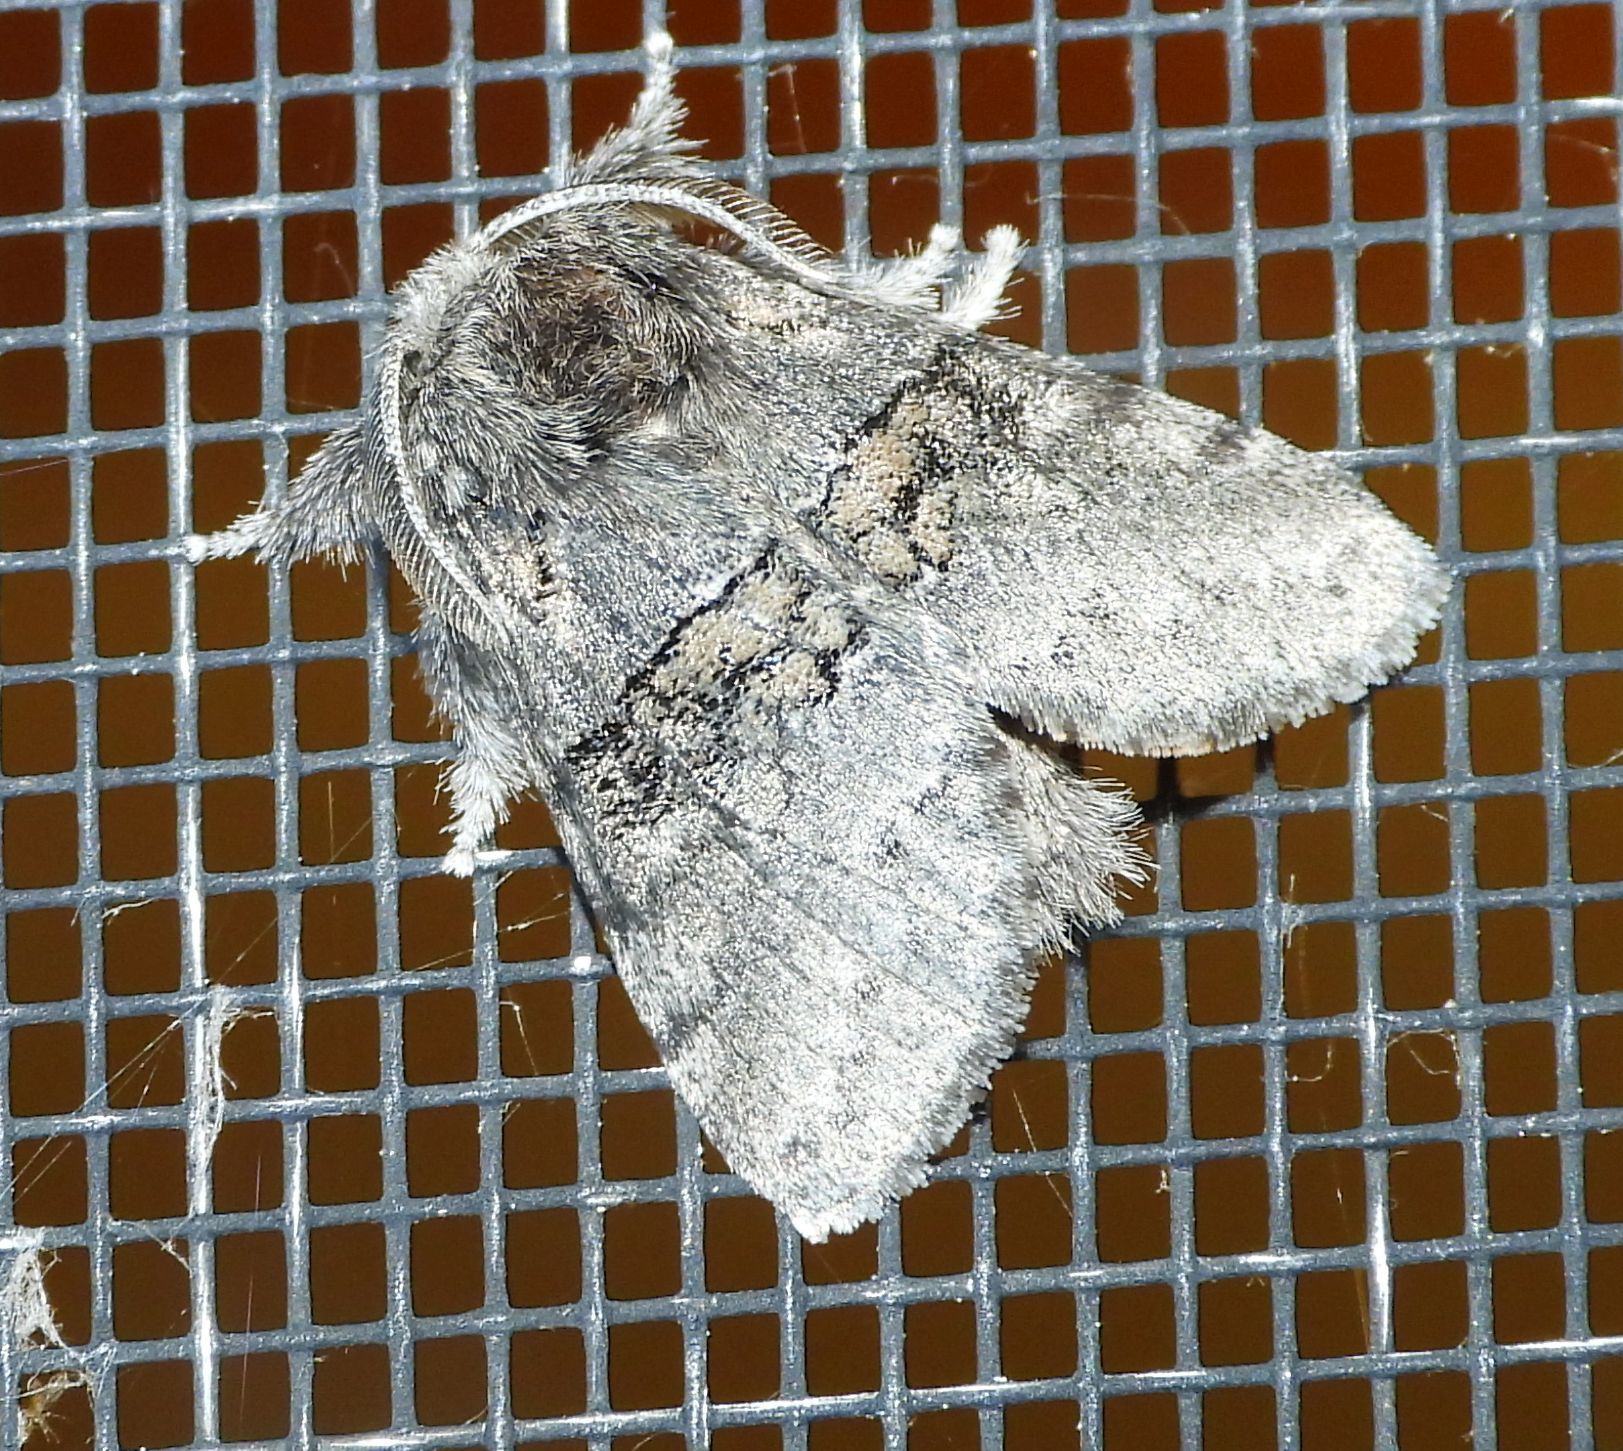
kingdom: Animalia
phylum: Arthropoda
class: Insecta
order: Lepidoptera
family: Notodontidae
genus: Gluphisia
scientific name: Gluphisia septentrionis
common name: Common gluphisia
